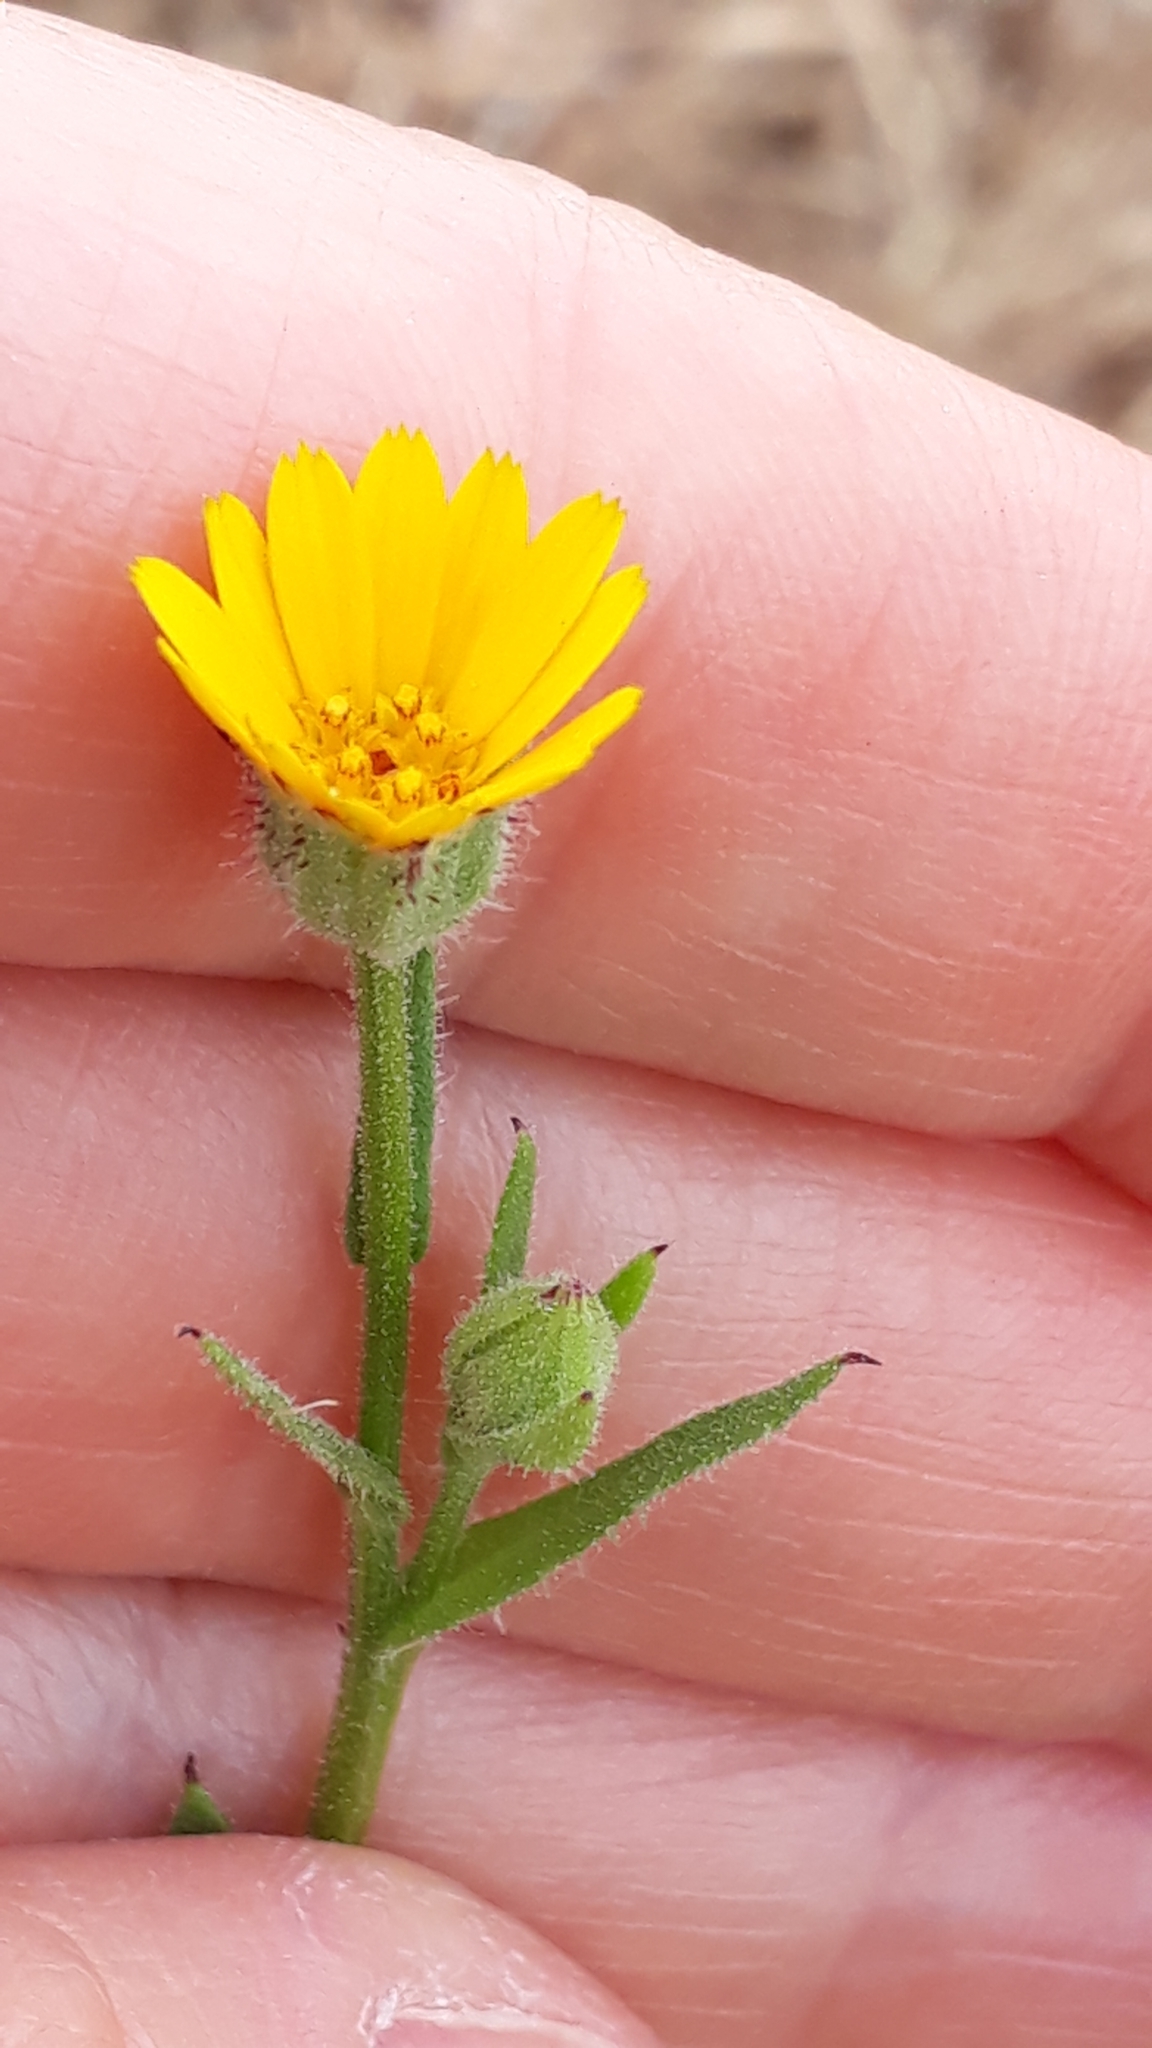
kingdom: Plantae
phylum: Tracheophyta
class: Magnoliopsida
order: Asterales
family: Asteraceae
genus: Calendula
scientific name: Calendula arvensis
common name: Field marigold
